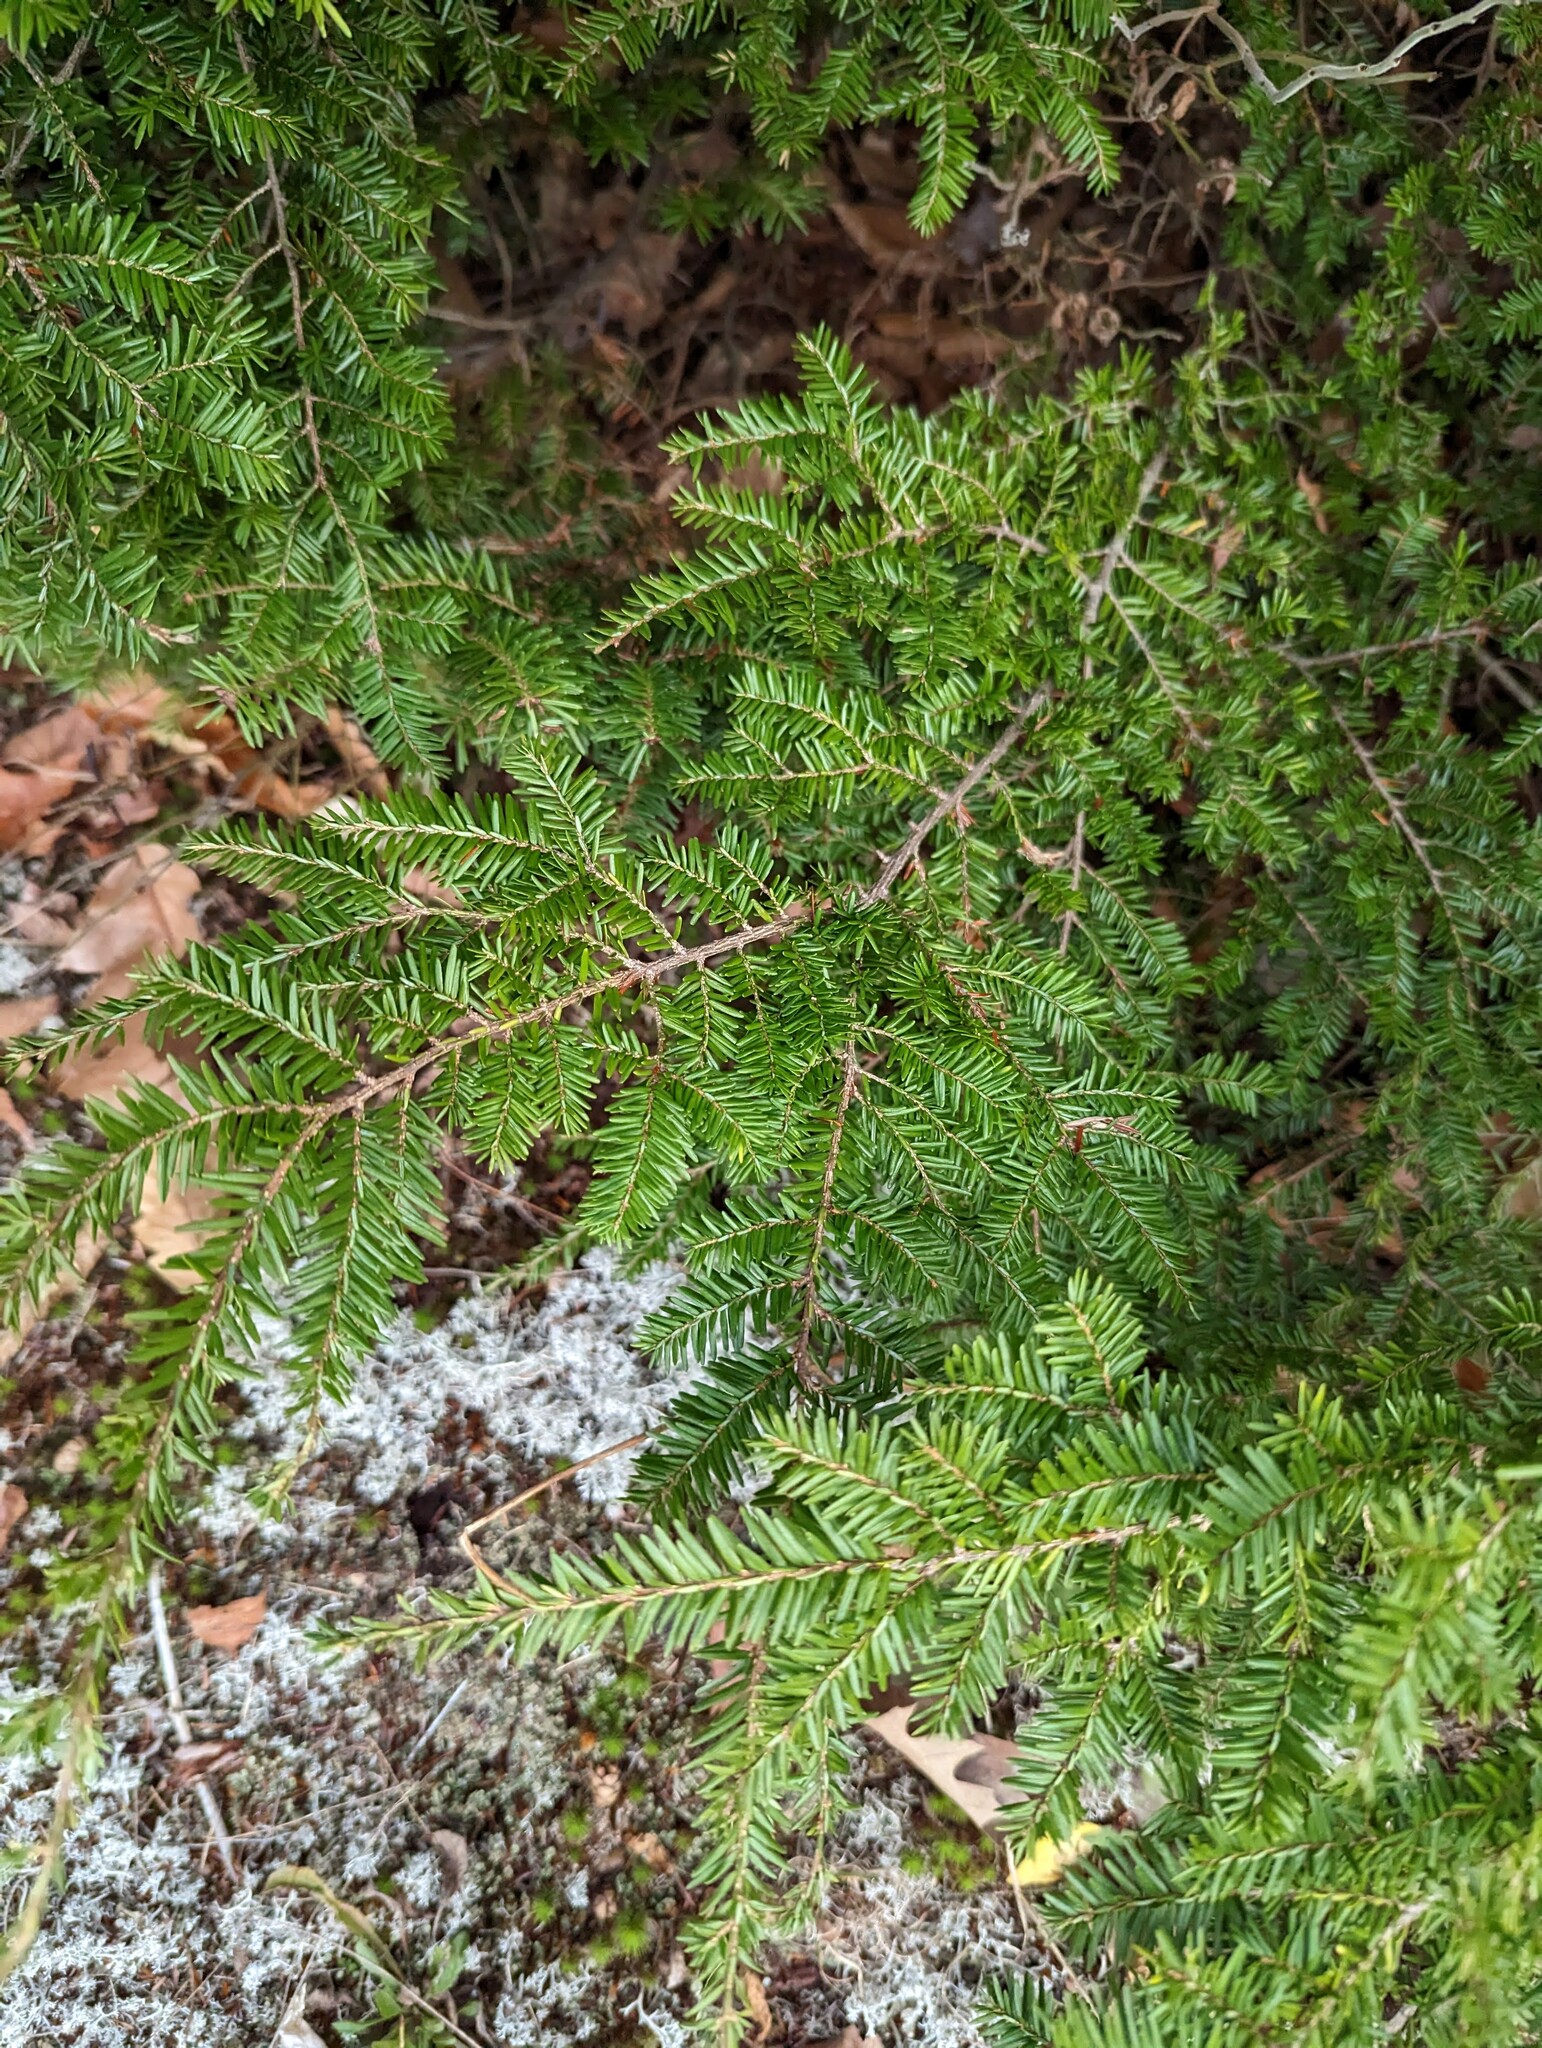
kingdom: Plantae
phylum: Tracheophyta
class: Pinopsida
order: Pinales
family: Pinaceae
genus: Tsuga
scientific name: Tsuga canadensis
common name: Eastern hemlock
